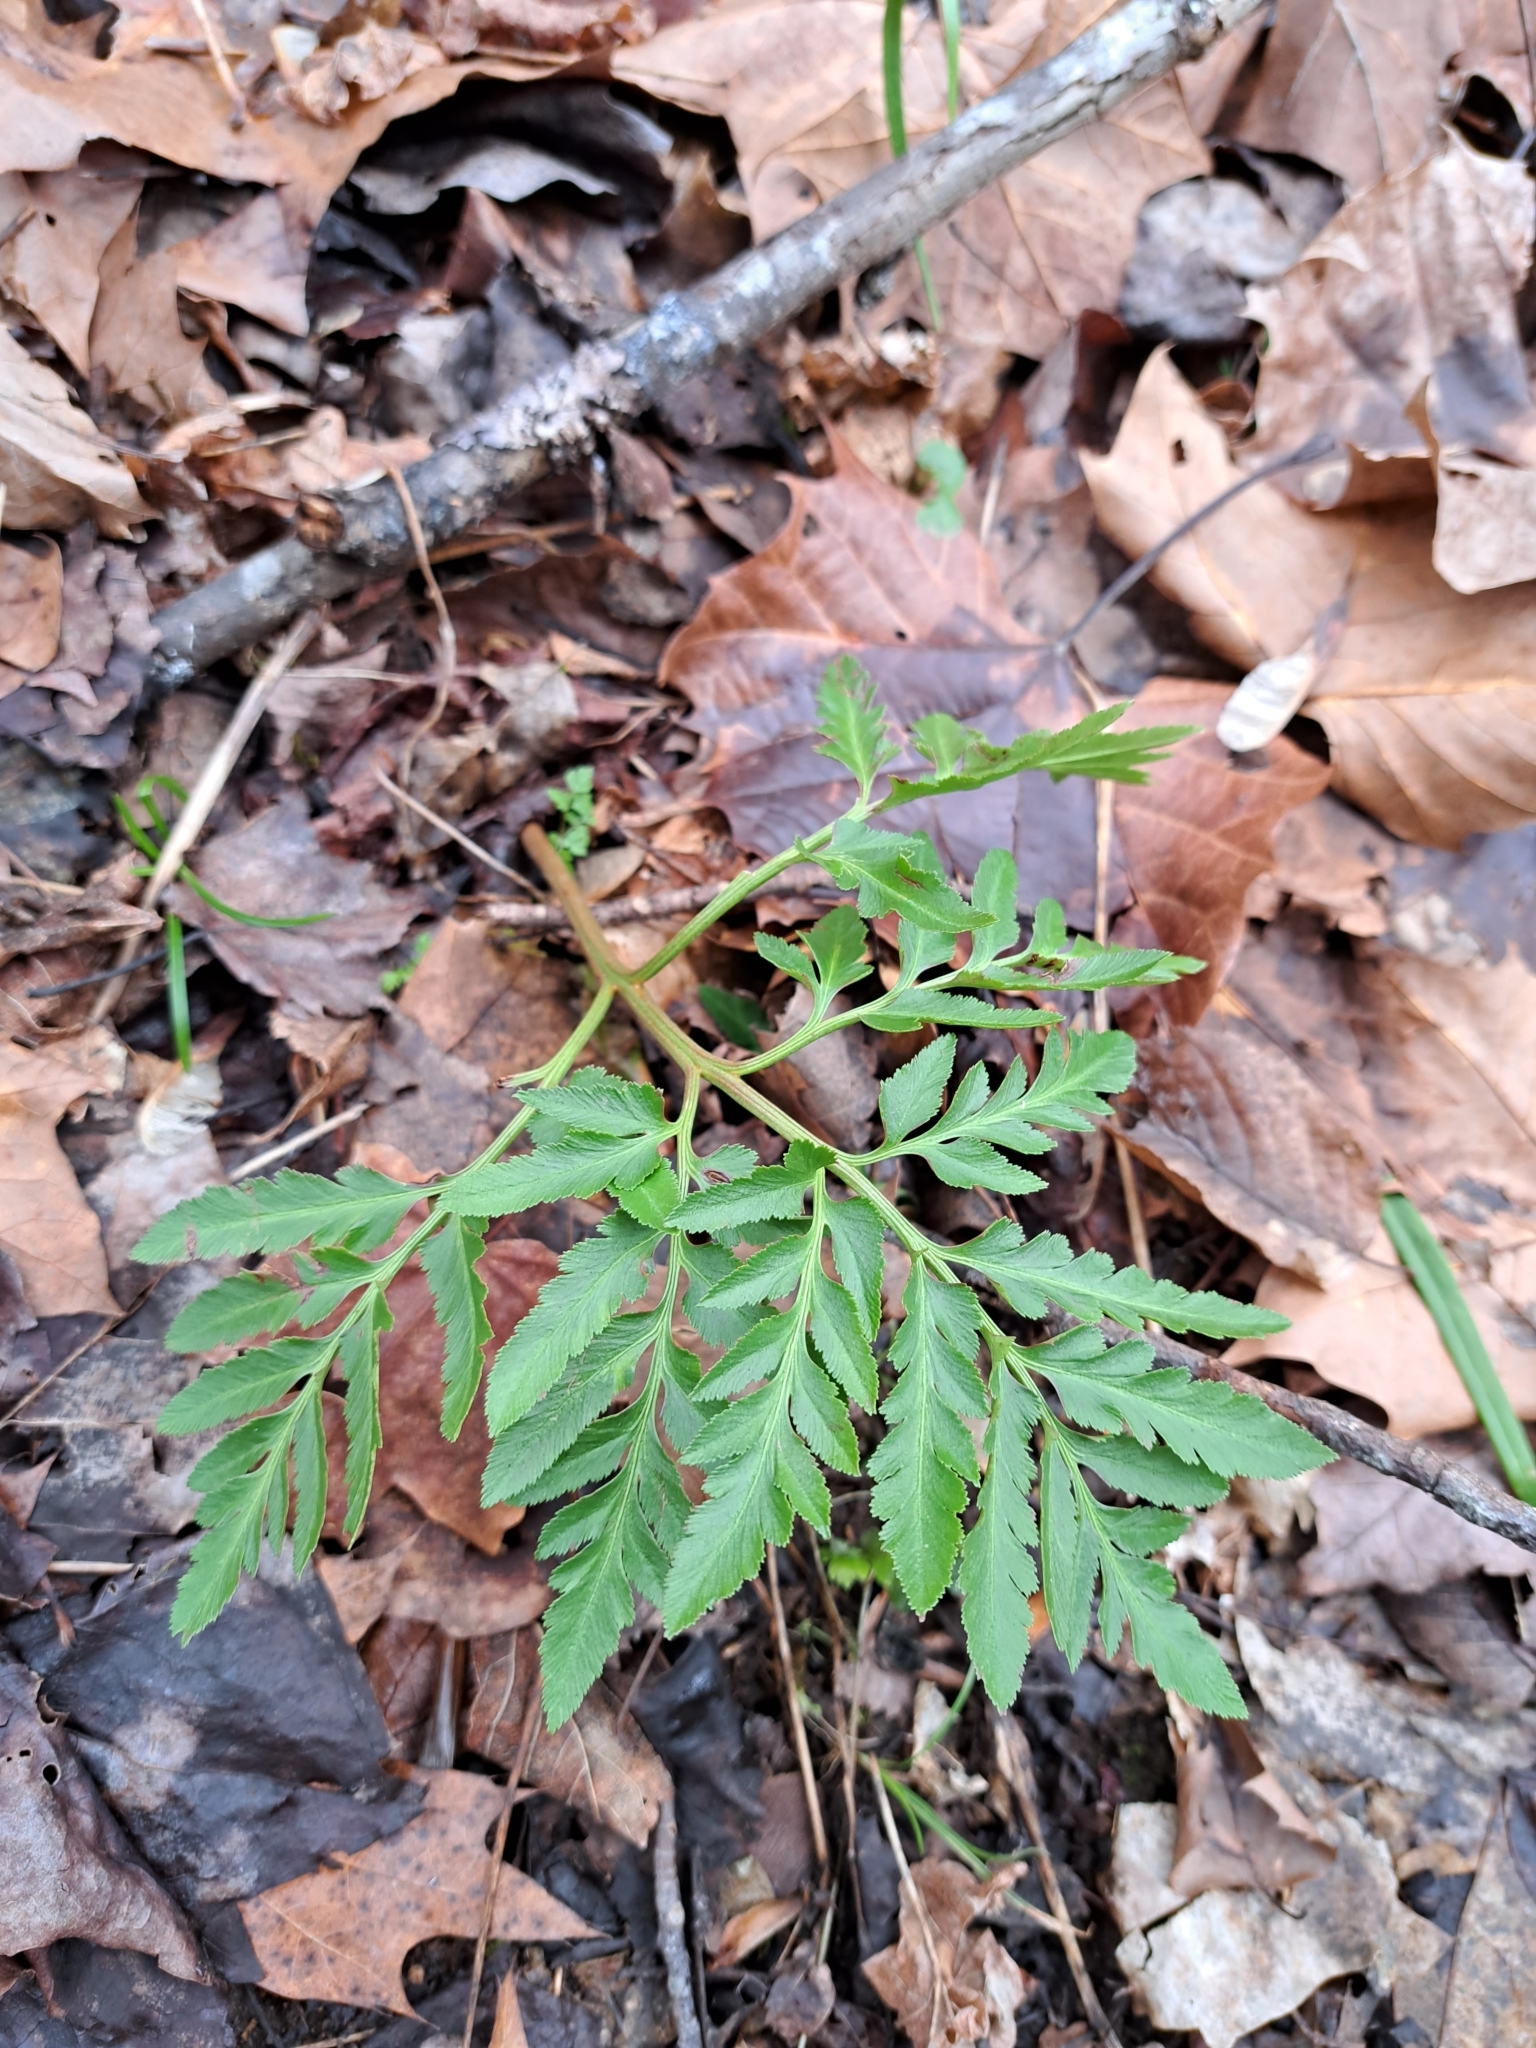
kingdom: Plantae
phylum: Tracheophyta
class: Polypodiopsida
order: Ophioglossales
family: Ophioglossaceae
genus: Sceptridium
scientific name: Sceptridium dissectum
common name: Cut-leaved grapefern
